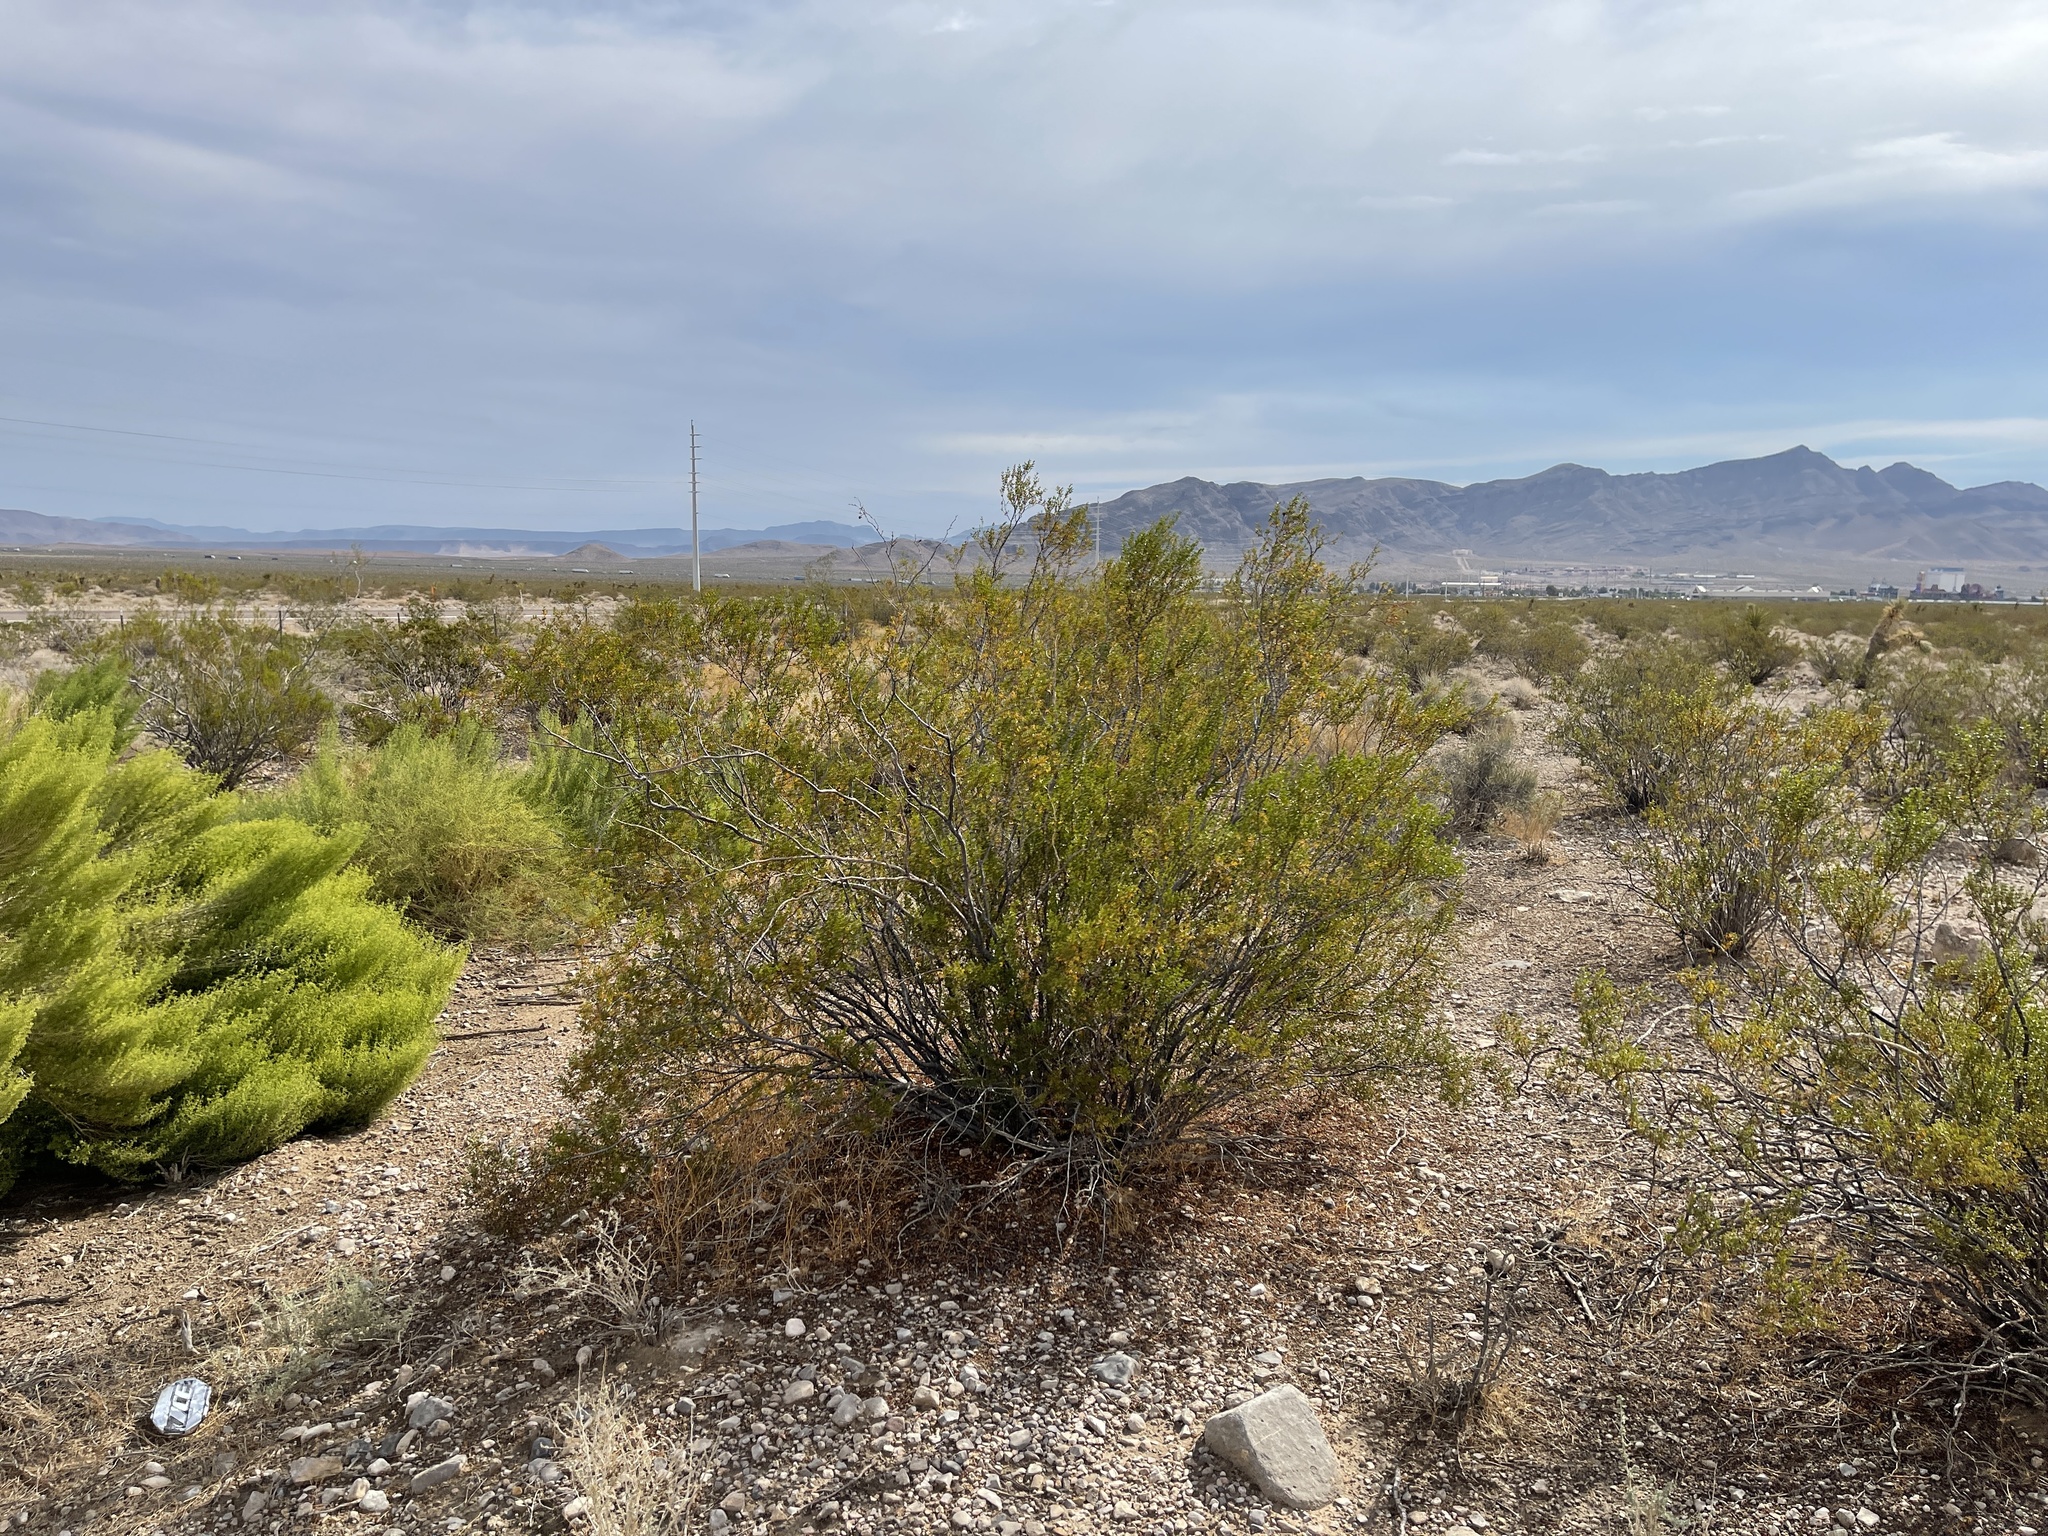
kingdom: Plantae
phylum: Tracheophyta
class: Magnoliopsida
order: Zygophyllales
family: Zygophyllaceae
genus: Larrea
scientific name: Larrea tridentata
